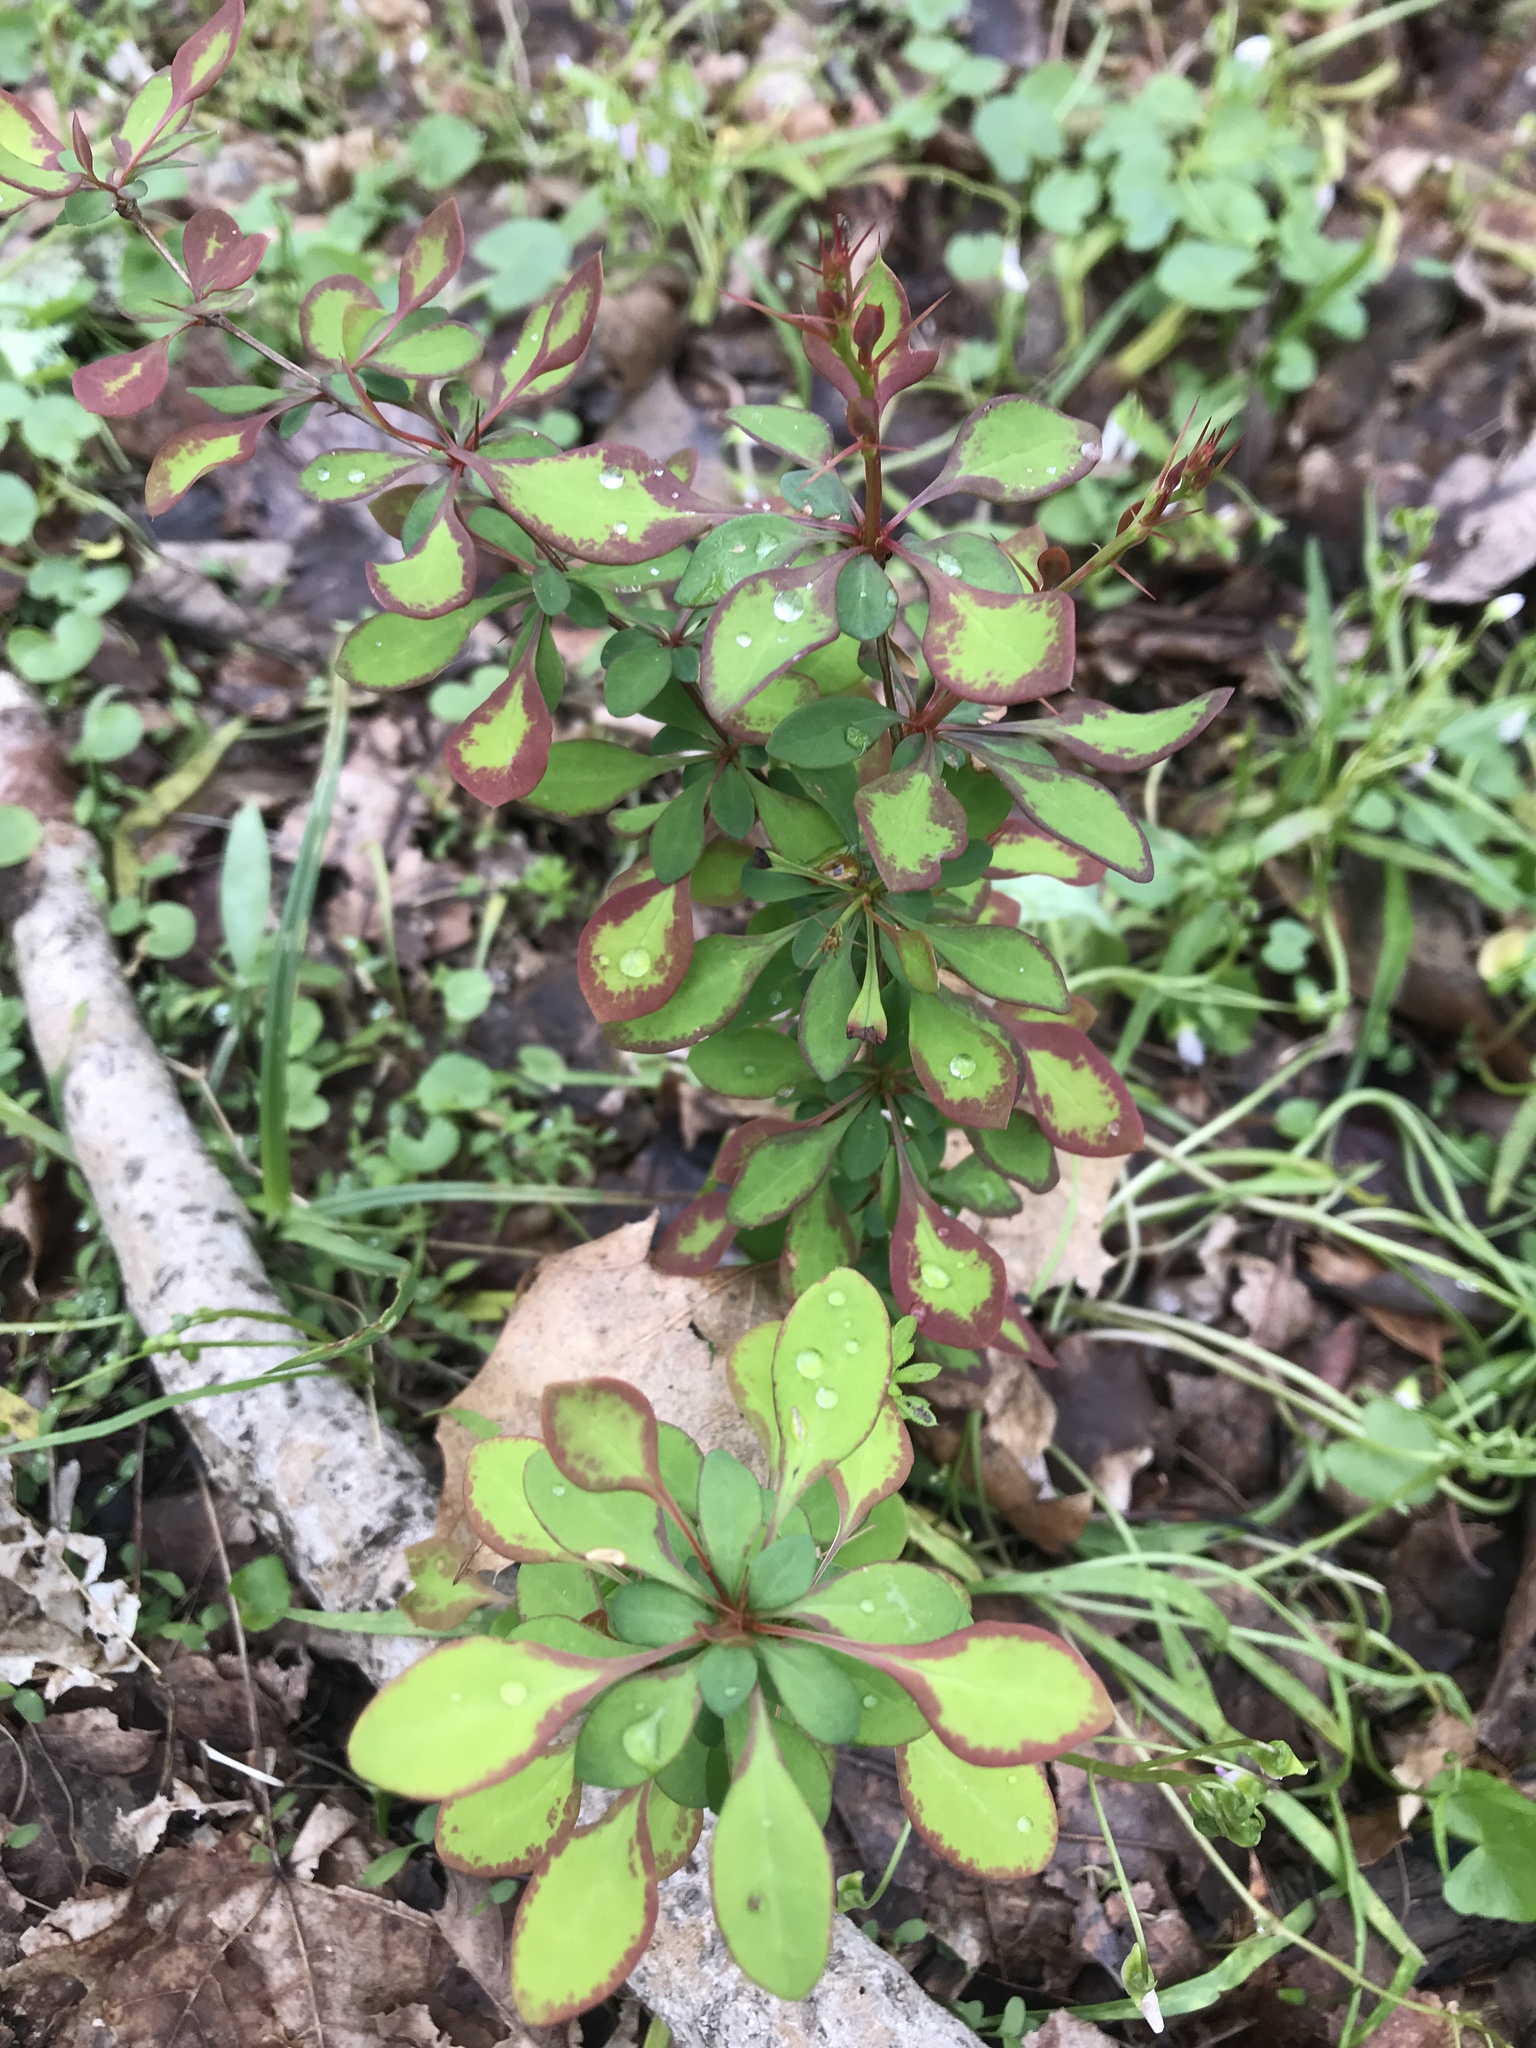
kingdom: Plantae
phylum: Tracheophyta
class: Magnoliopsida
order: Ranunculales
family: Berberidaceae
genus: Berberis
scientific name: Berberis thunbergii
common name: Japanese barberry
